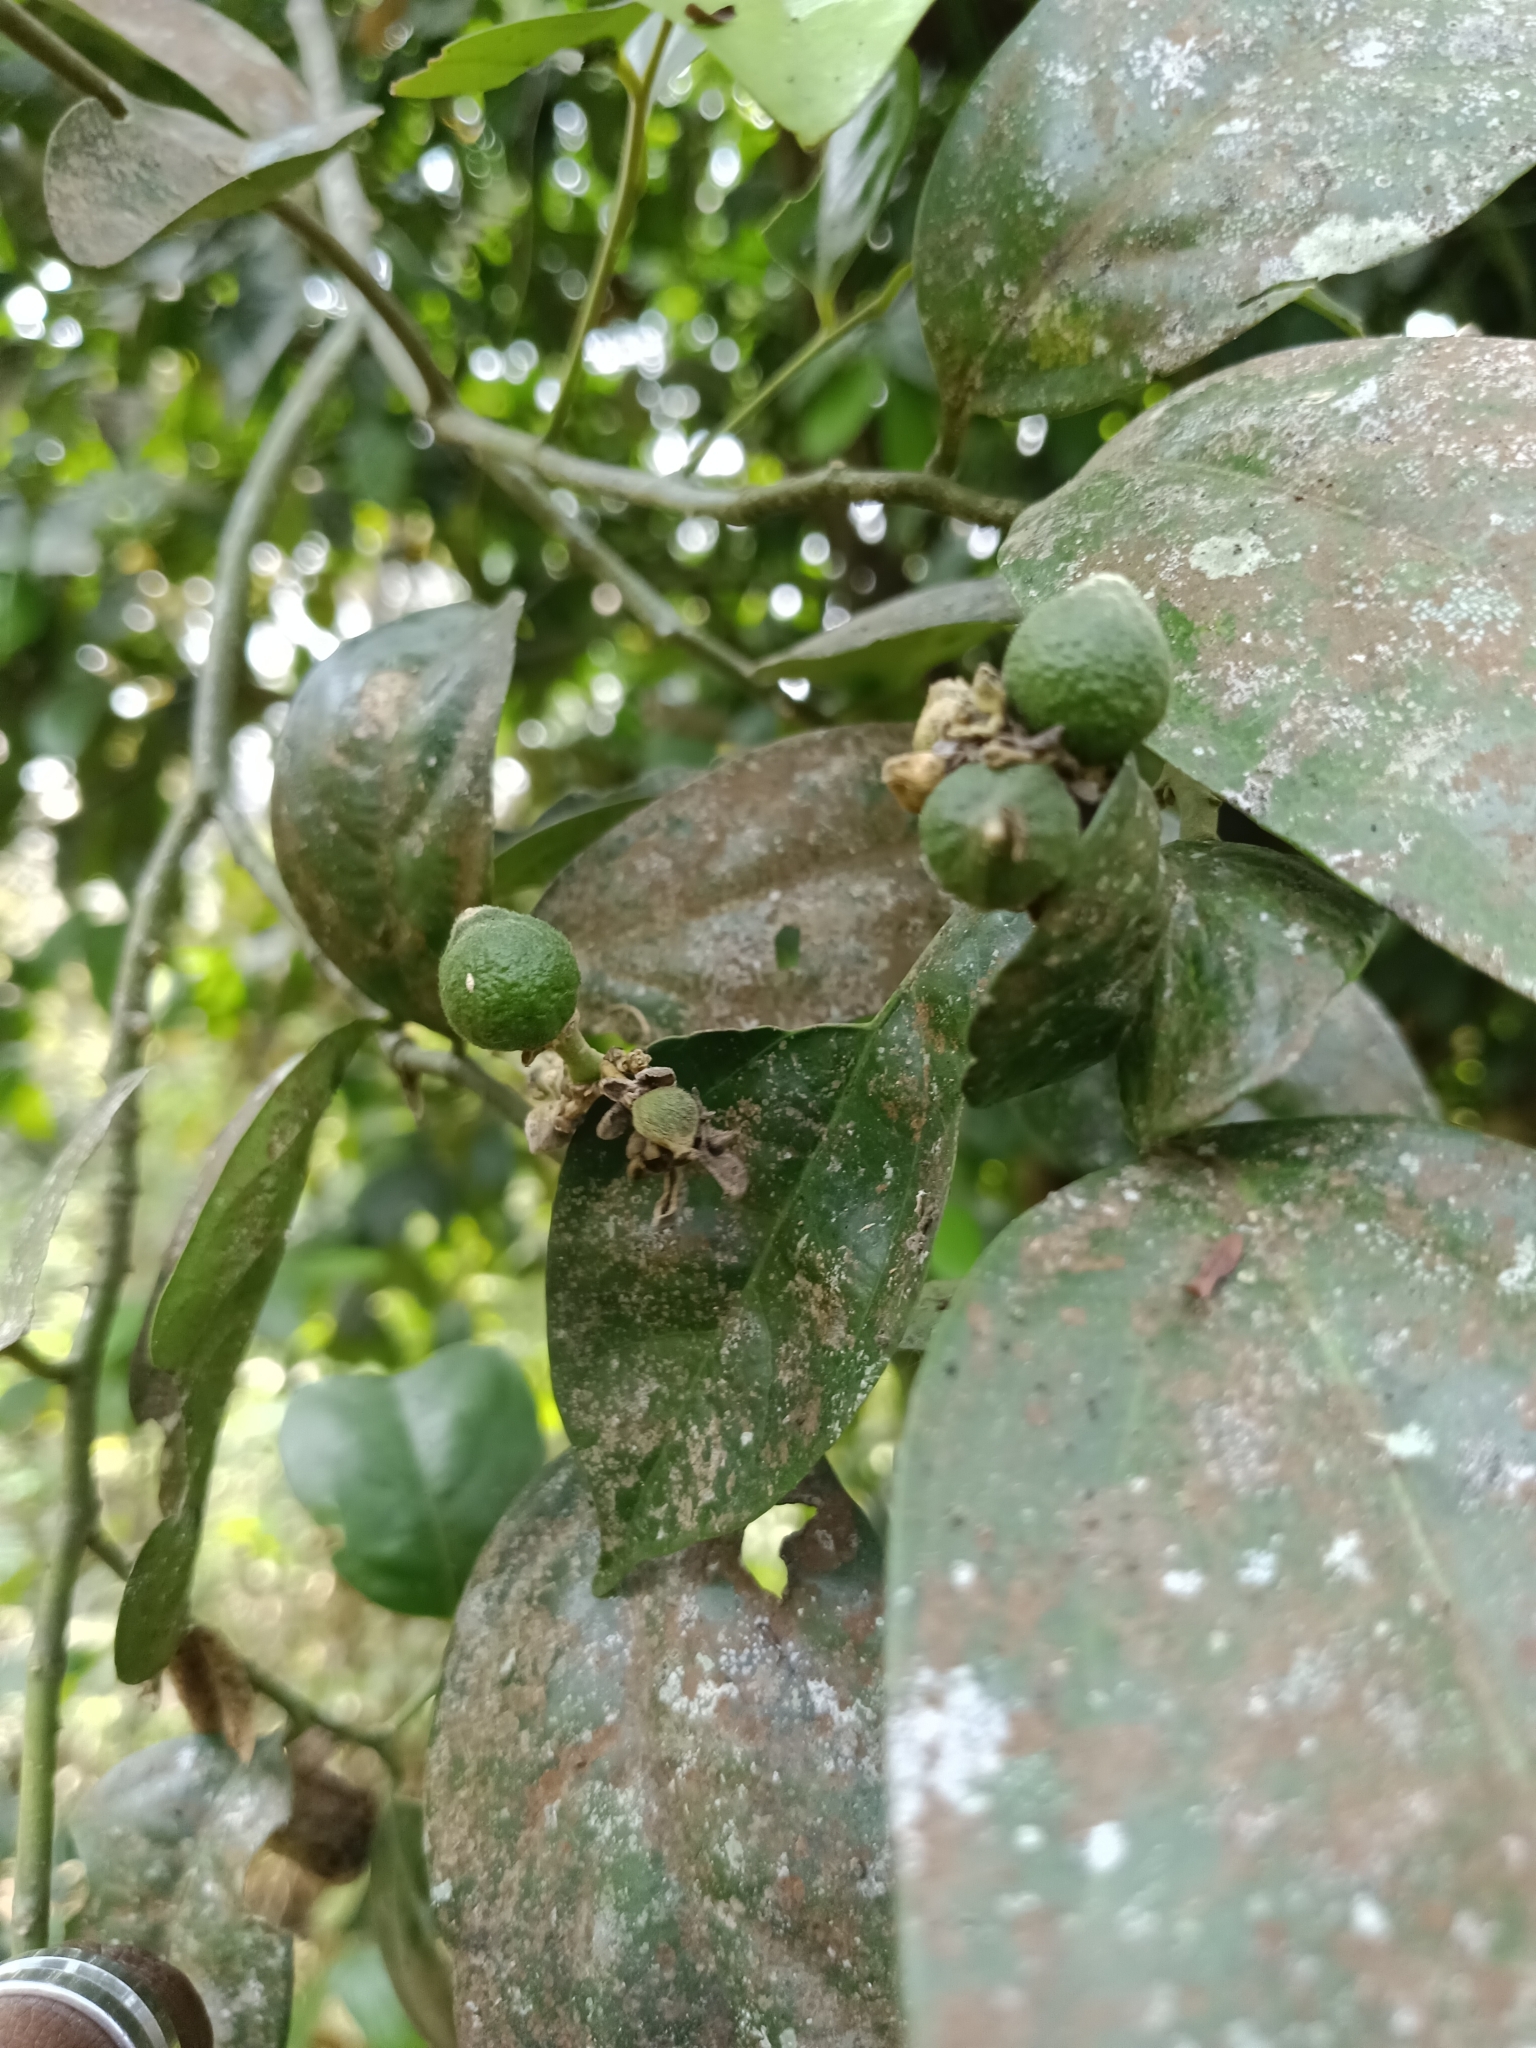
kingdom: Plantae
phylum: Tracheophyta
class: Magnoliopsida
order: Fabales
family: Polygalaceae
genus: Xanthophyllum
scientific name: Xanthophyllum flavescens
